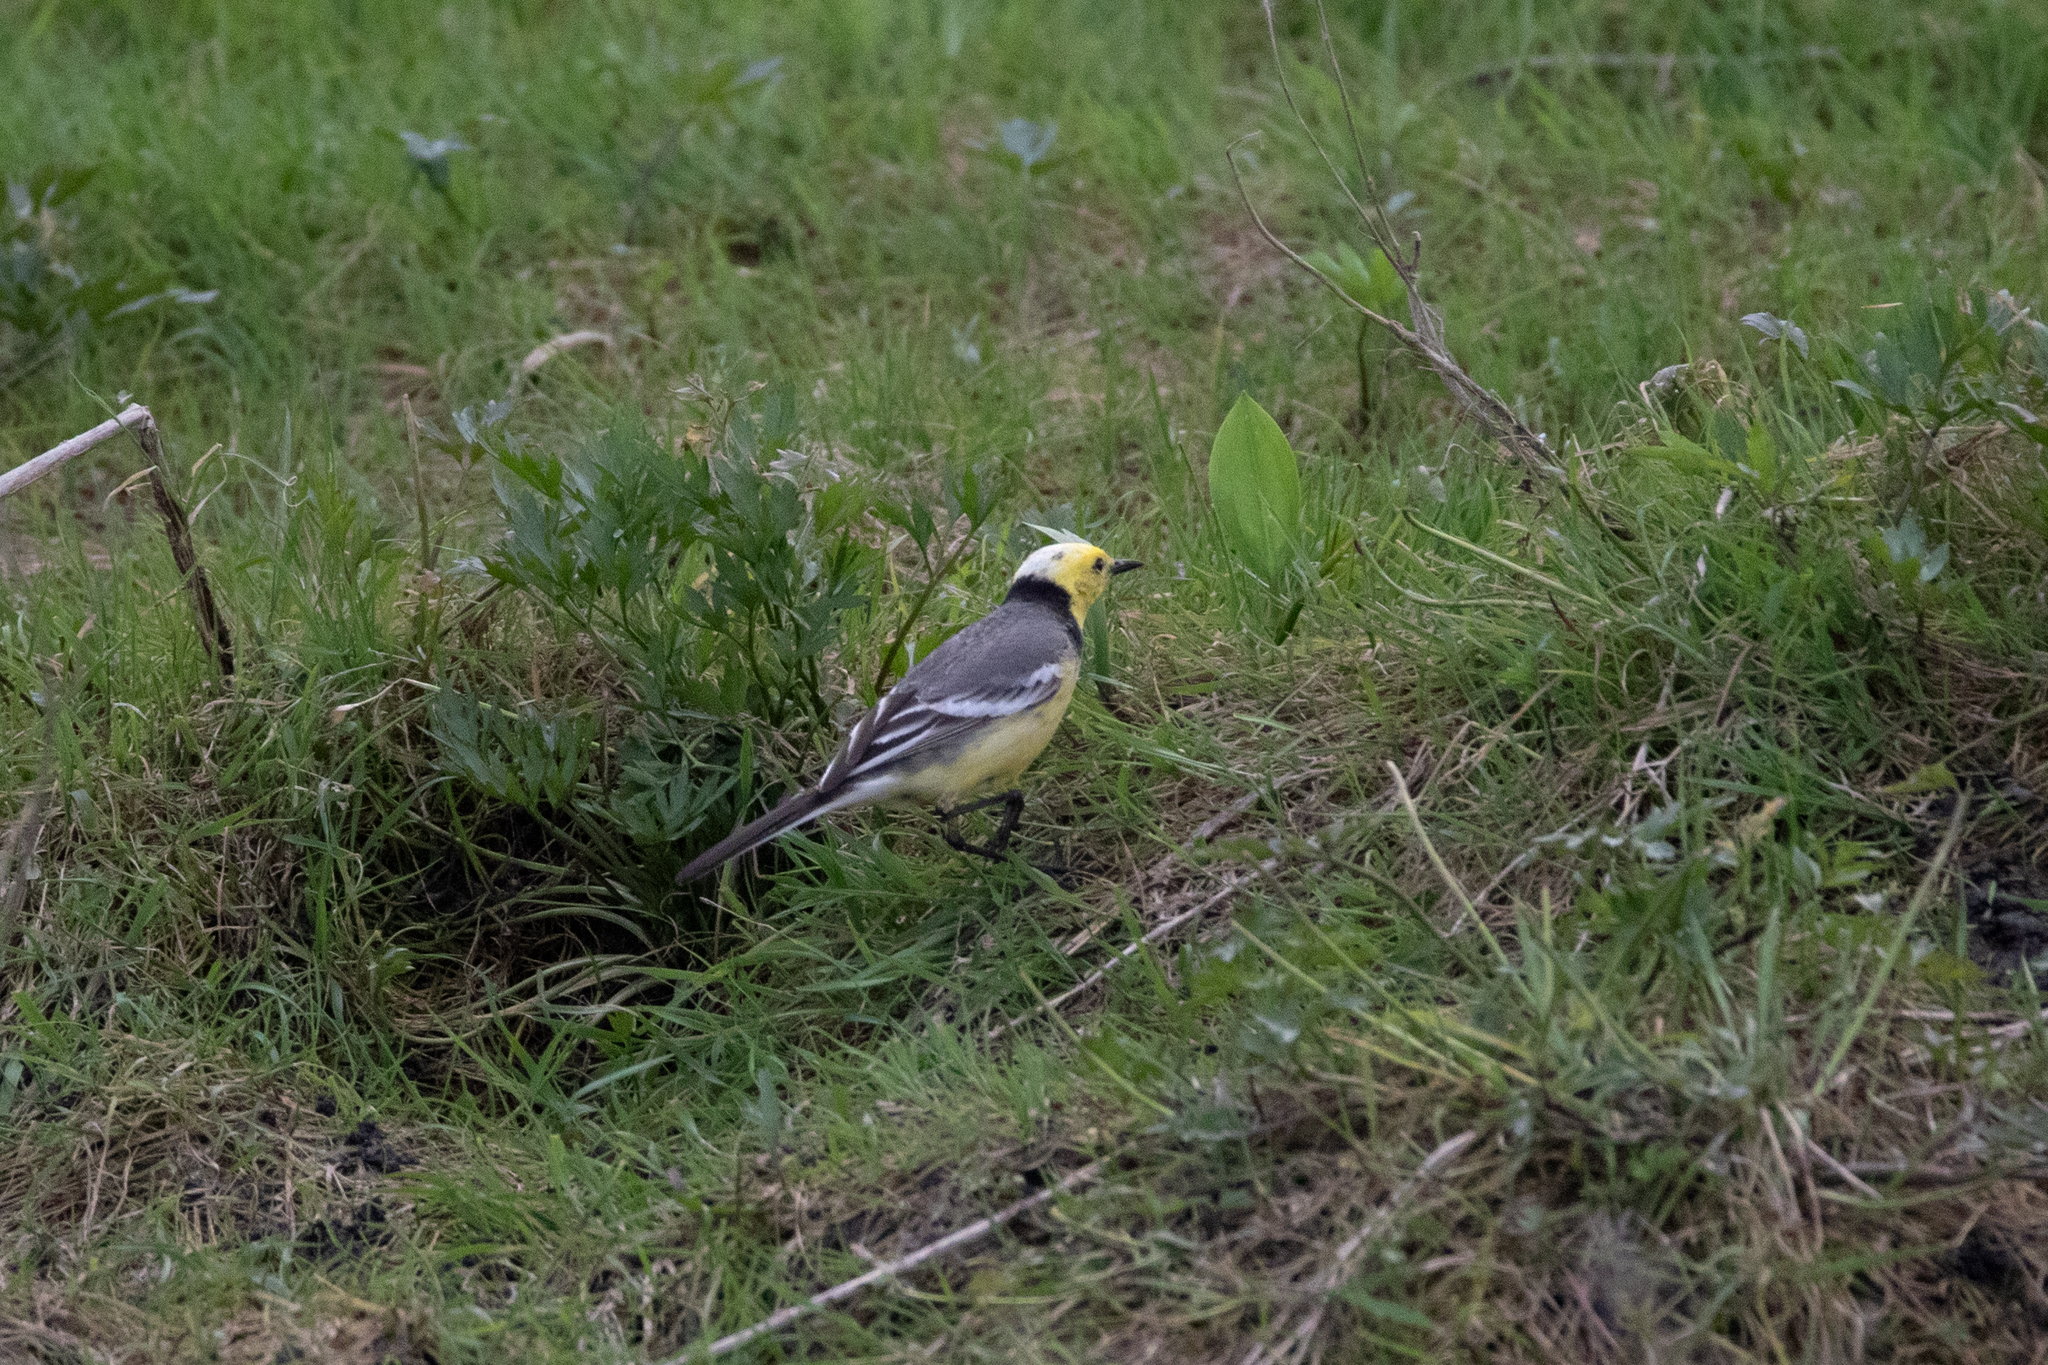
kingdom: Animalia
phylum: Chordata
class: Aves
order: Passeriformes
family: Motacillidae
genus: Motacilla
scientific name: Motacilla citreola
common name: Citrine wagtail
